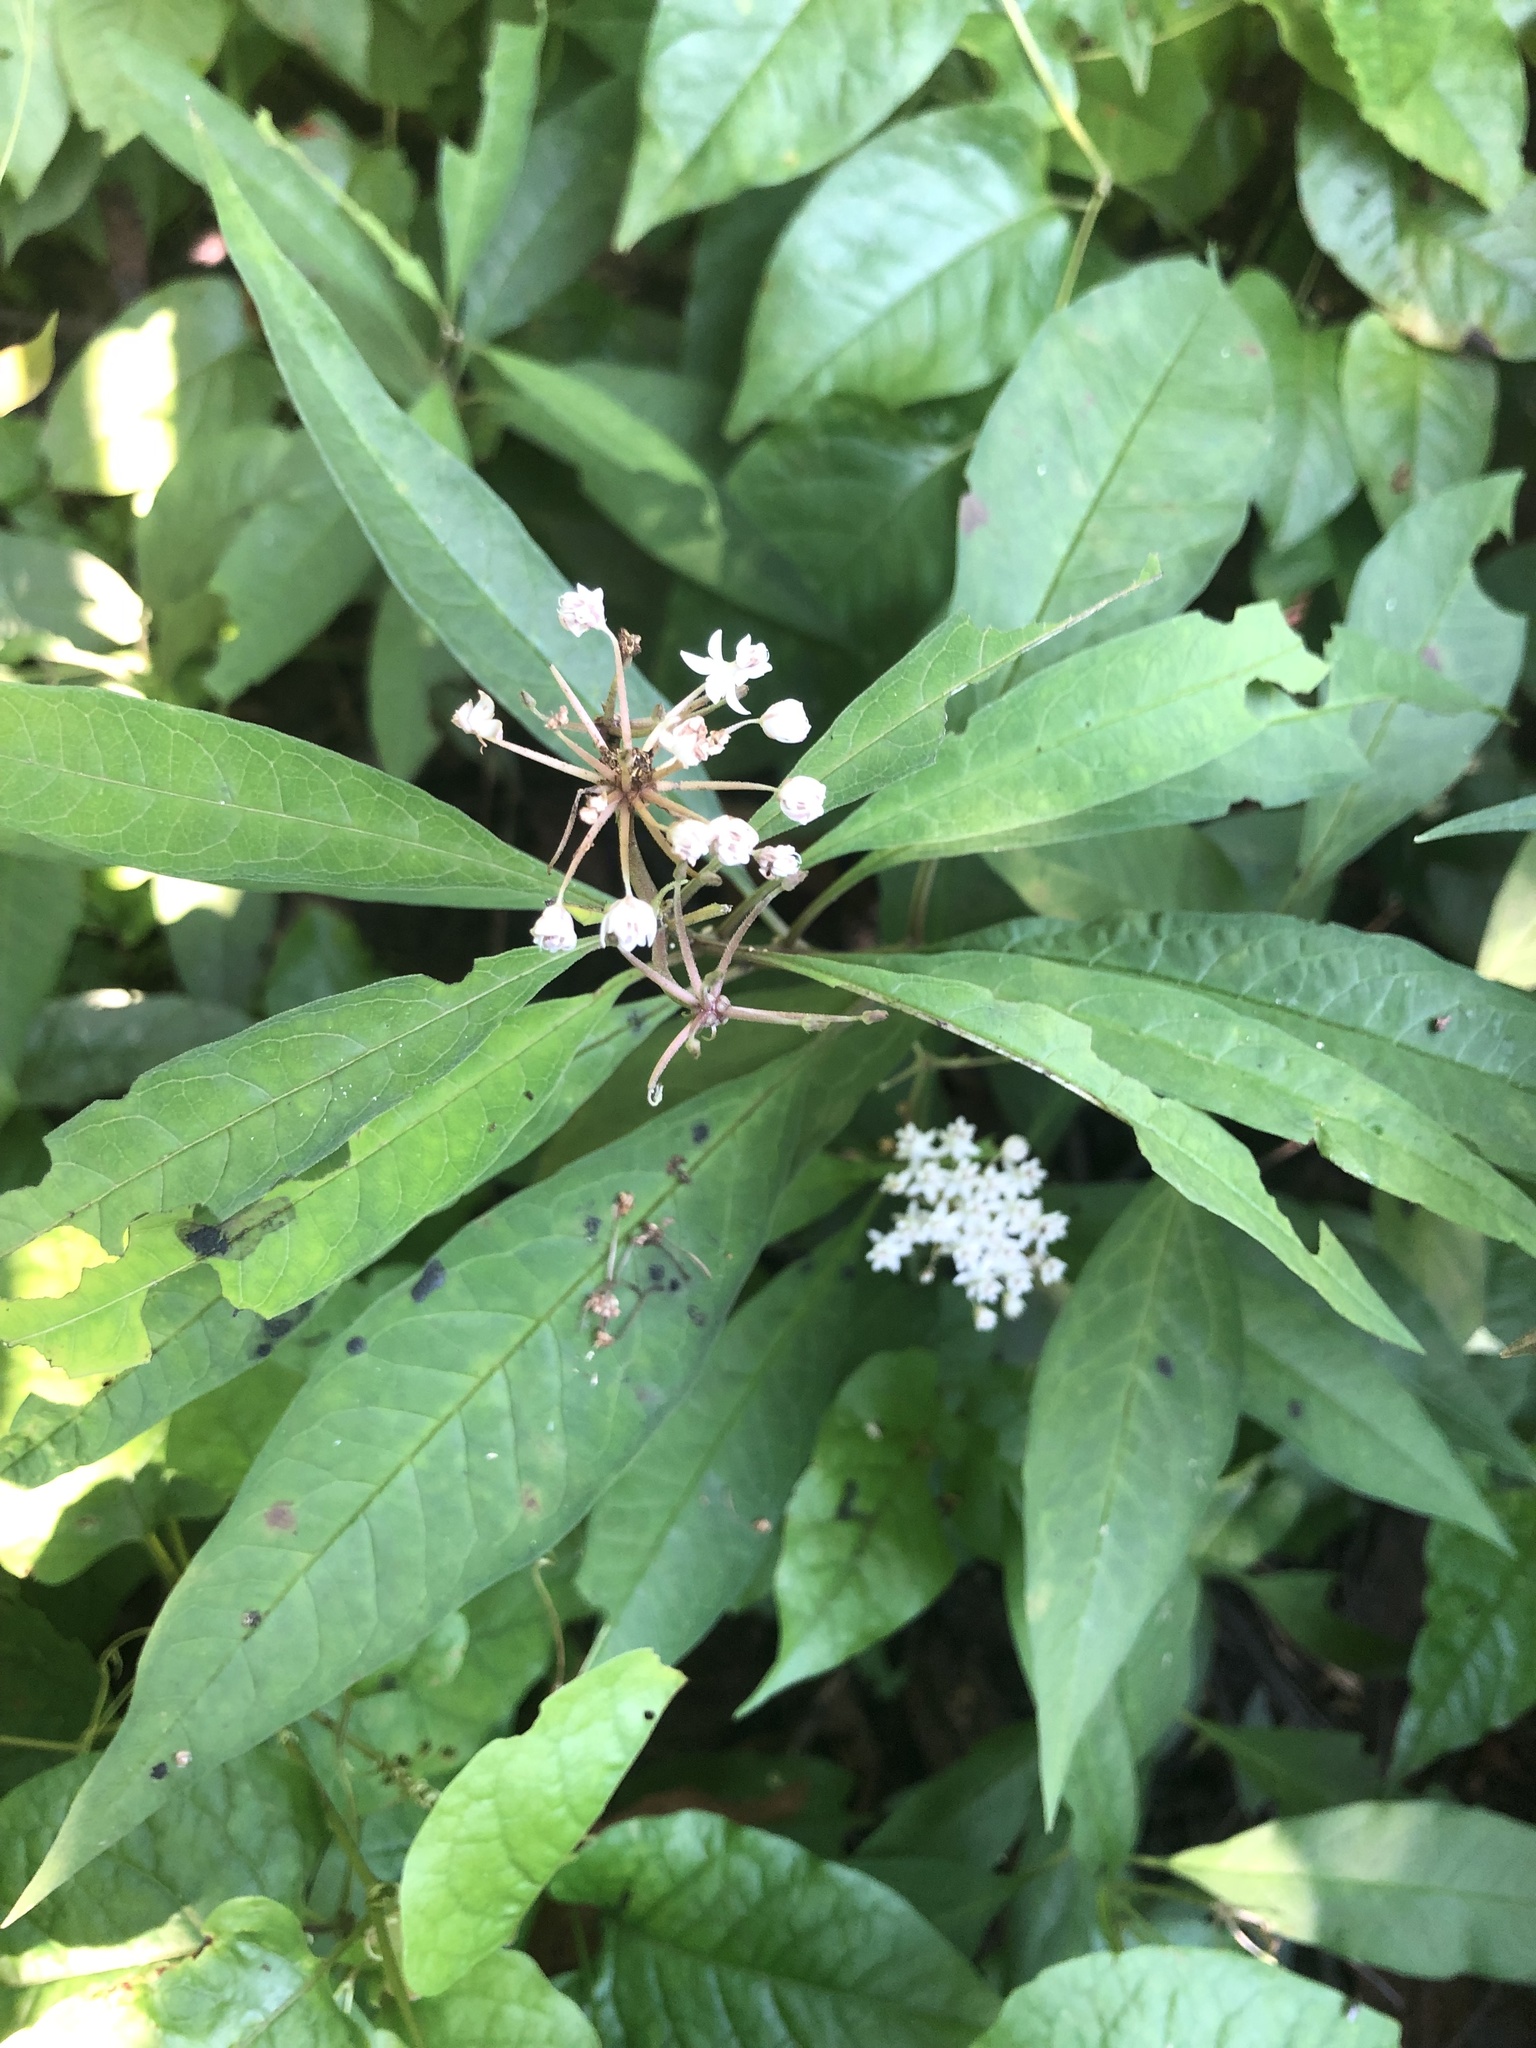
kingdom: Plantae
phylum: Tracheophyta
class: Magnoliopsida
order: Gentianales
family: Apocynaceae
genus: Asclepias
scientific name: Asclepias perennis
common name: Smooth-seed milkweed
